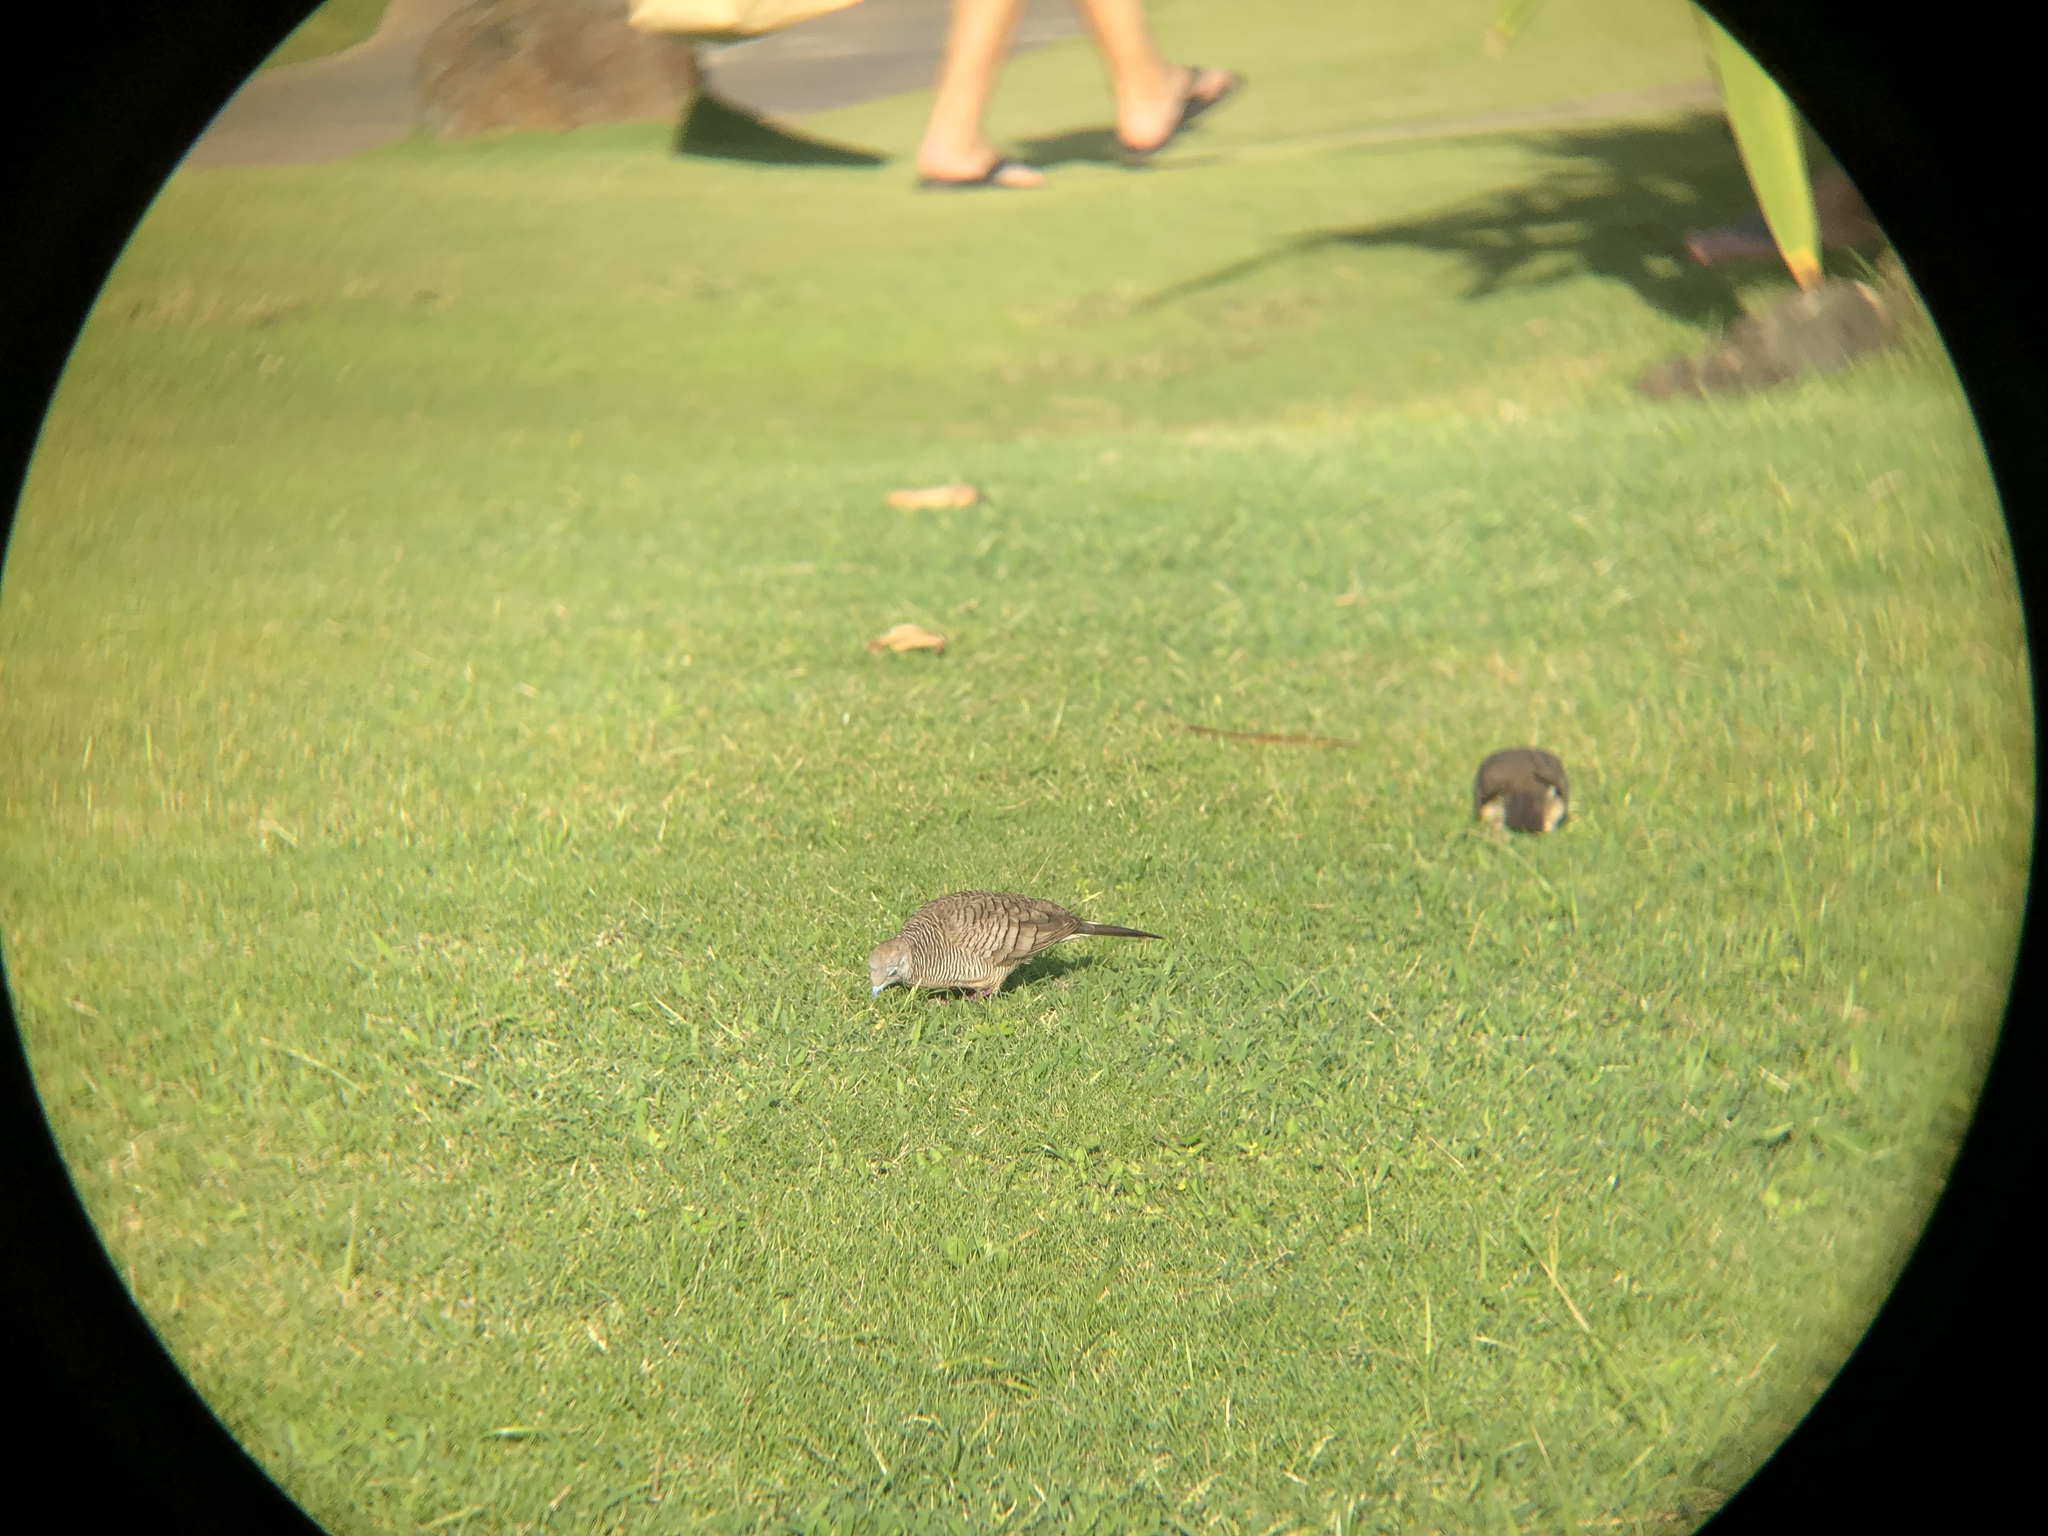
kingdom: Animalia
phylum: Chordata
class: Aves
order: Columbiformes
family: Columbidae
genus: Geopelia
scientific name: Geopelia striata
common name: Zebra dove
